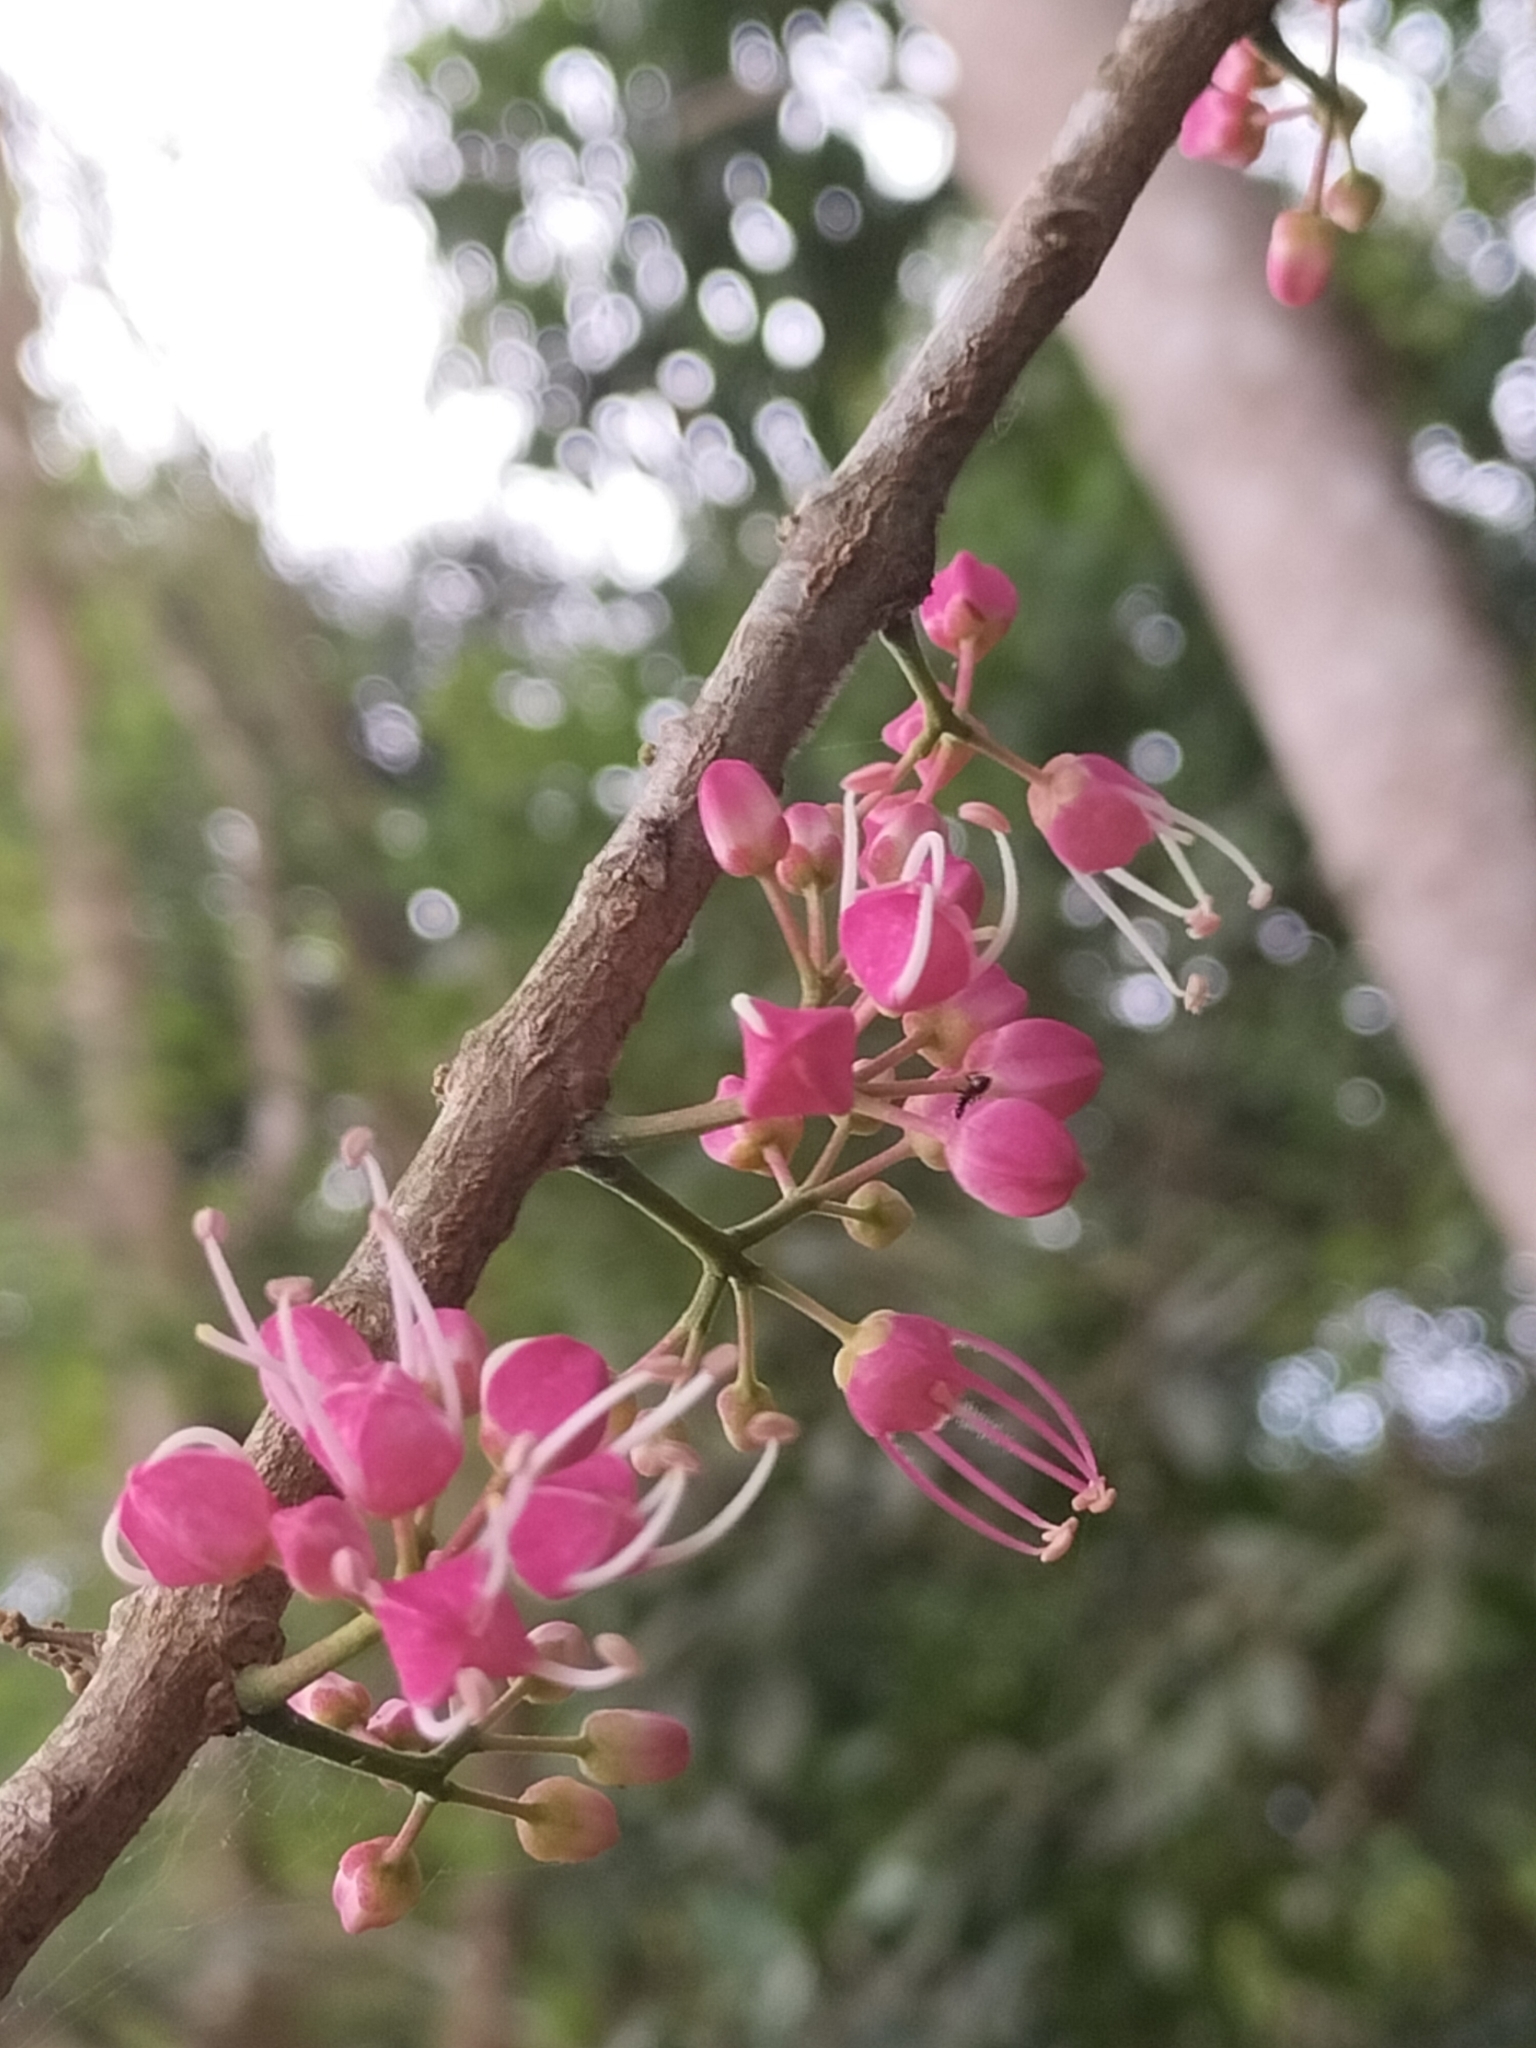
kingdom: Plantae
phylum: Tracheophyta
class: Magnoliopsida
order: Sapindales
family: Rutaceae
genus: Melicope
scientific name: Melicope rubra
